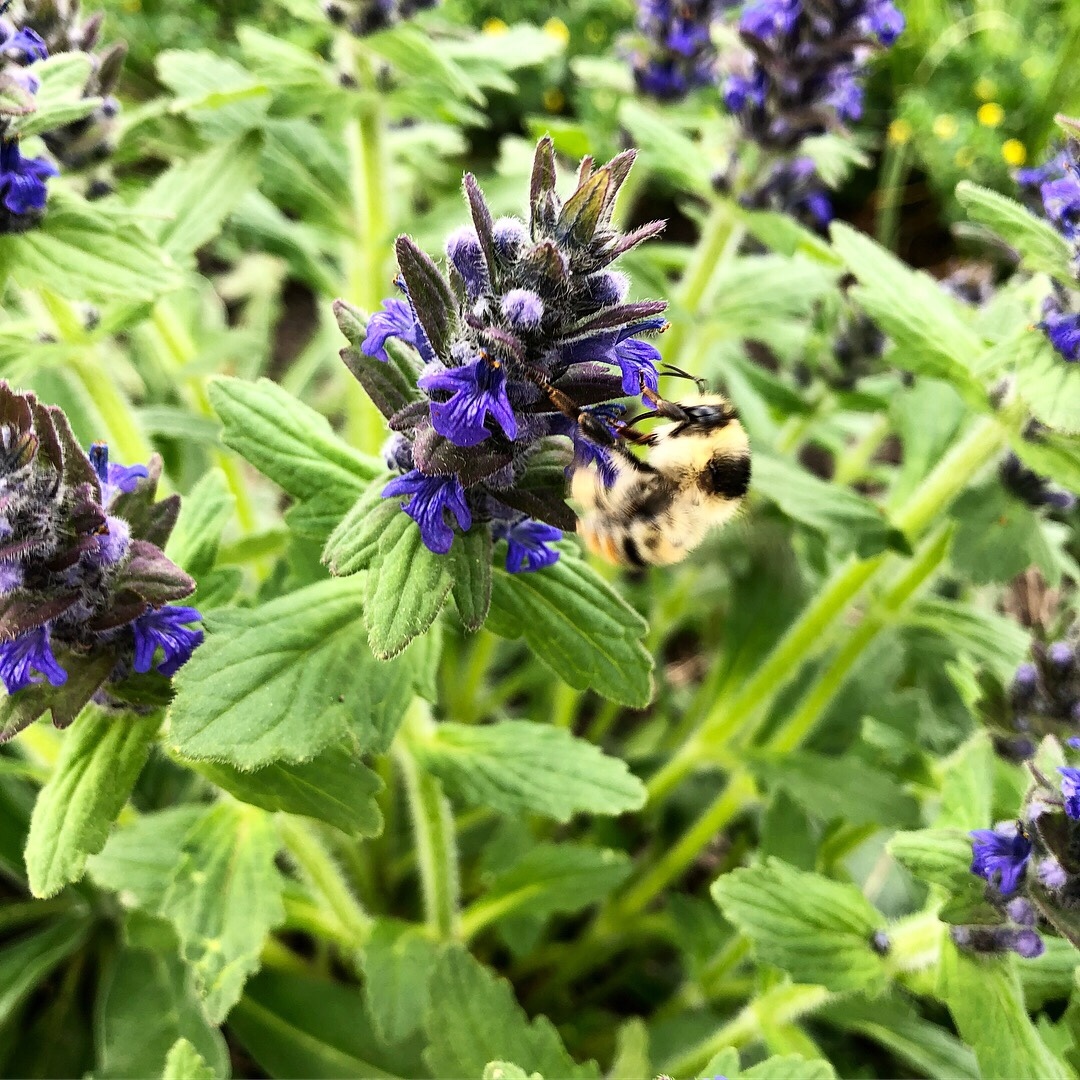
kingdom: Plantae
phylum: Tracheophyta
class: Magnoliopsida
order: Lamiales
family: Lamiaceae
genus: Ajuga
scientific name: Ajuga reptans
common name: Bugle
